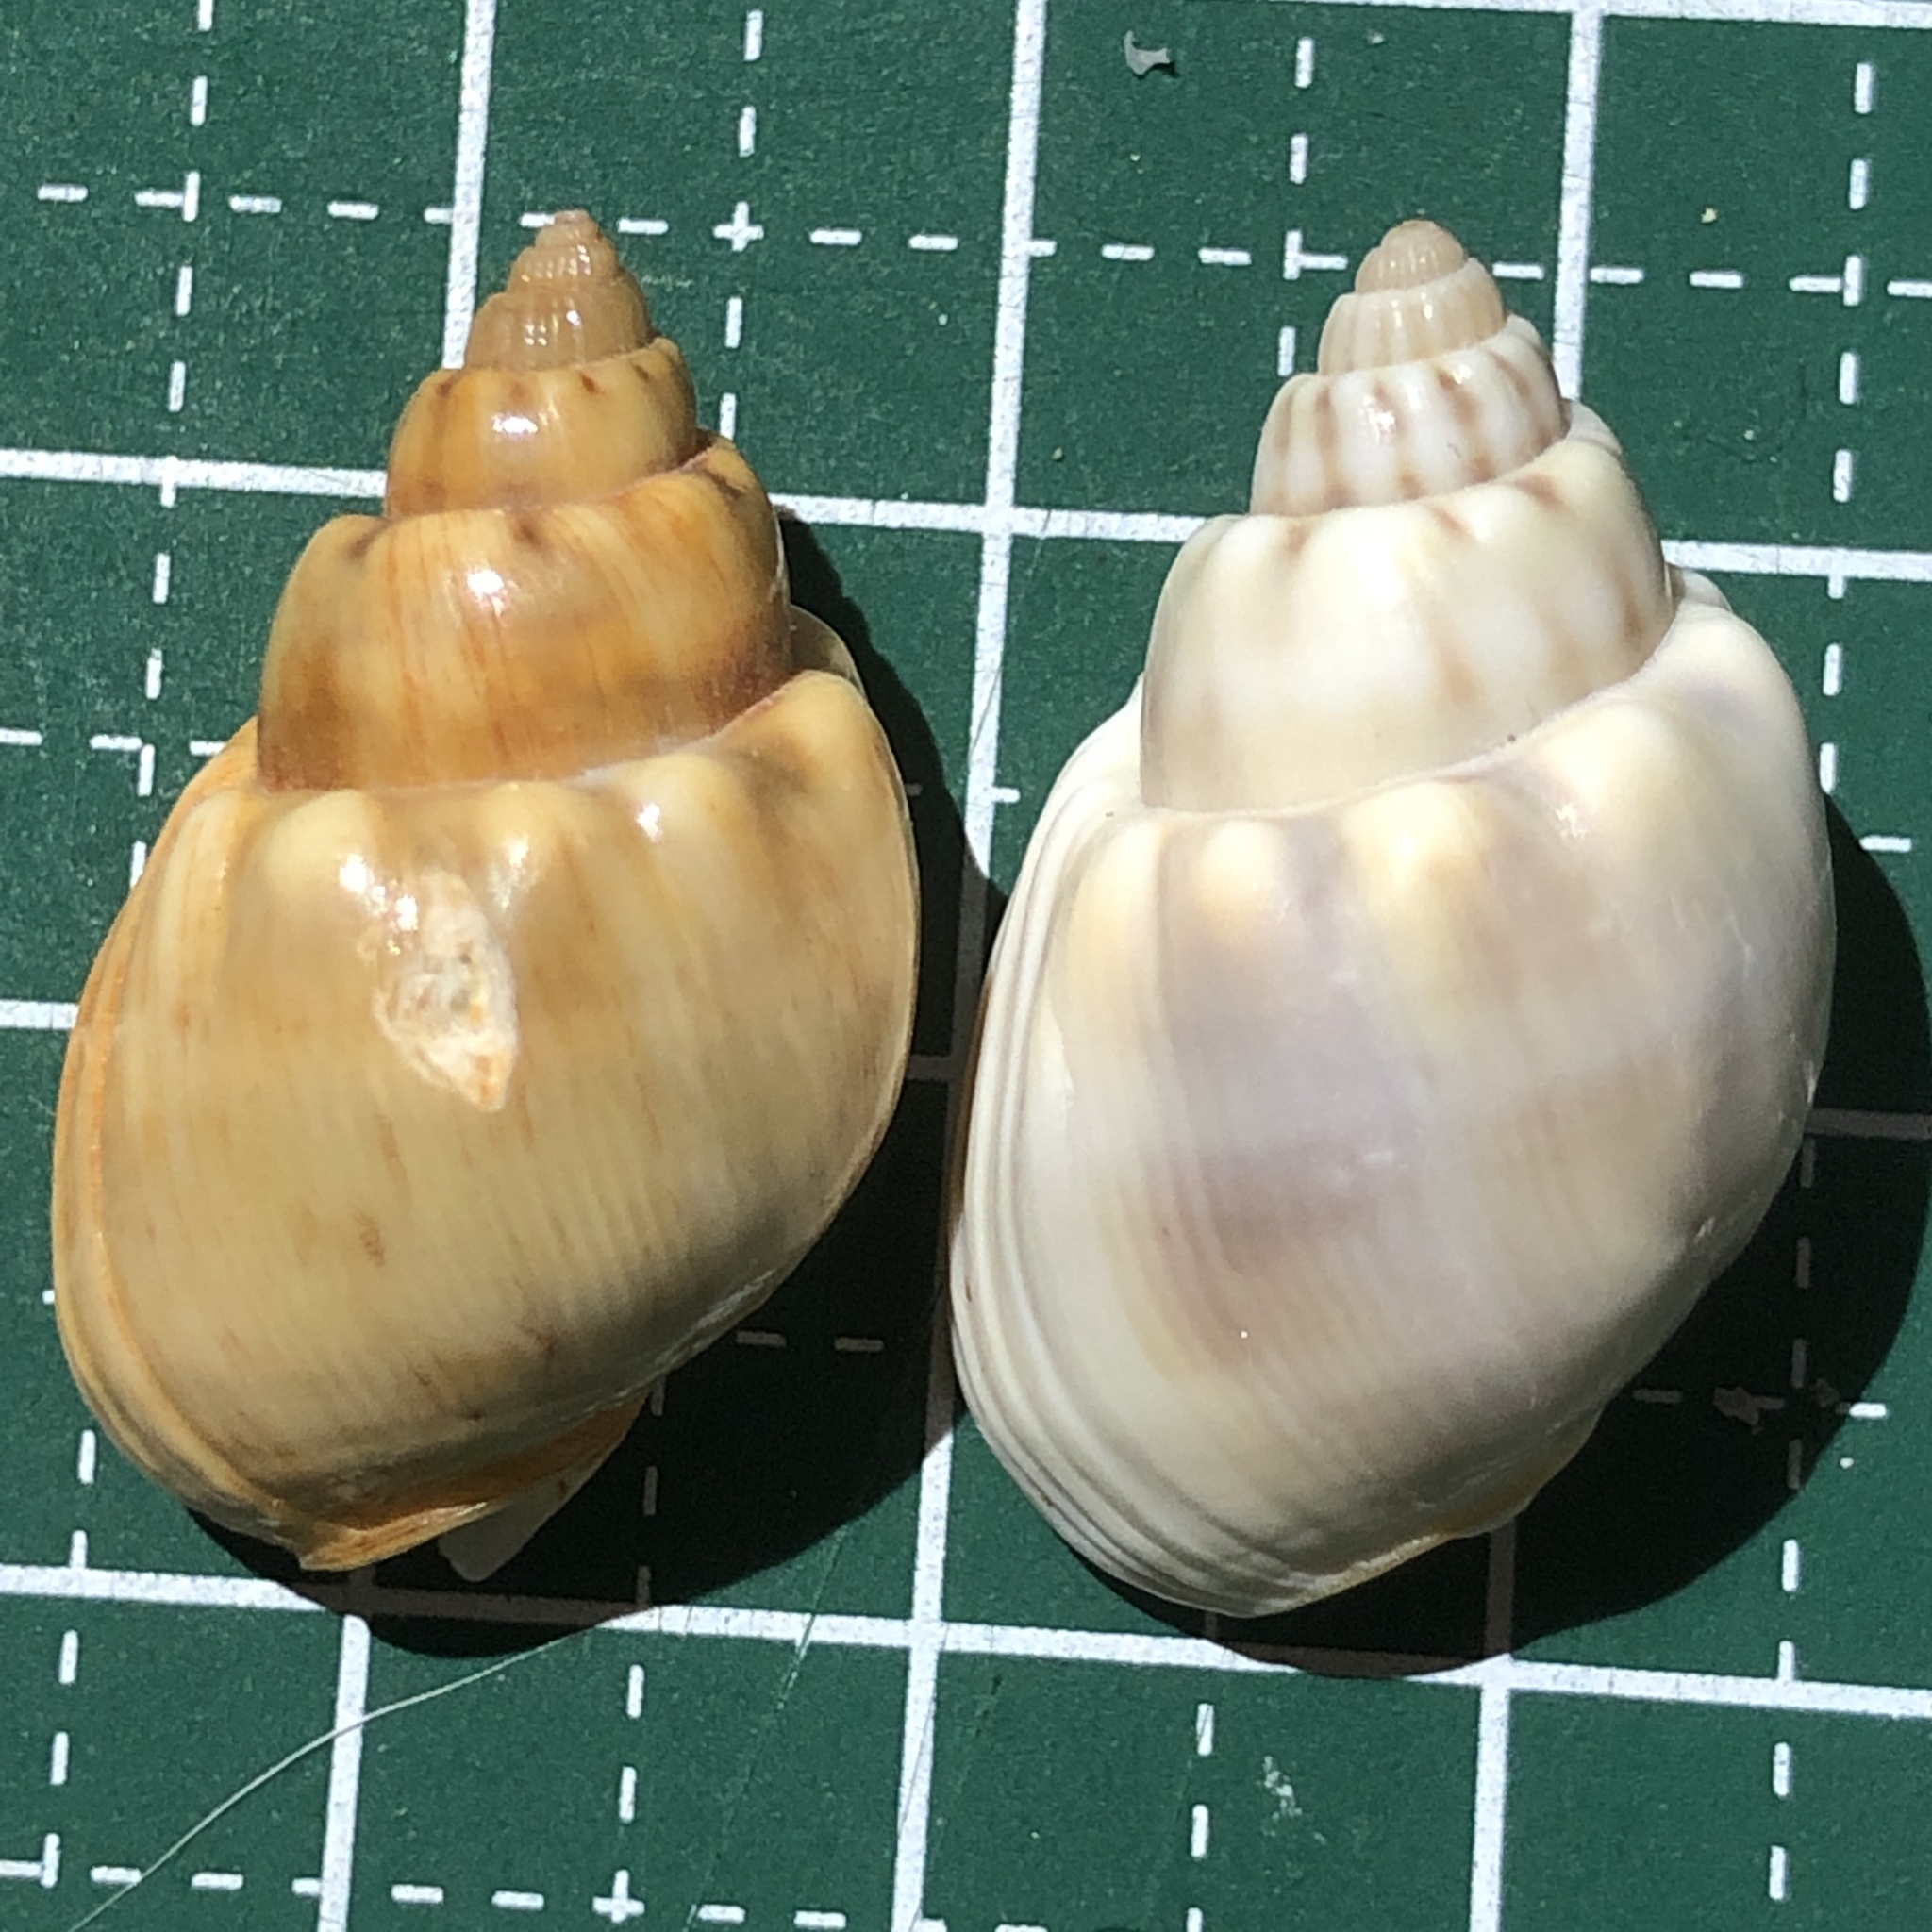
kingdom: Animalia
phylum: Mollusca
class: Gastropoda
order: Neogastropoda
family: Nassariidae
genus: Nassarius
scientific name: Nassarius coronatus
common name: Crowned nassa
